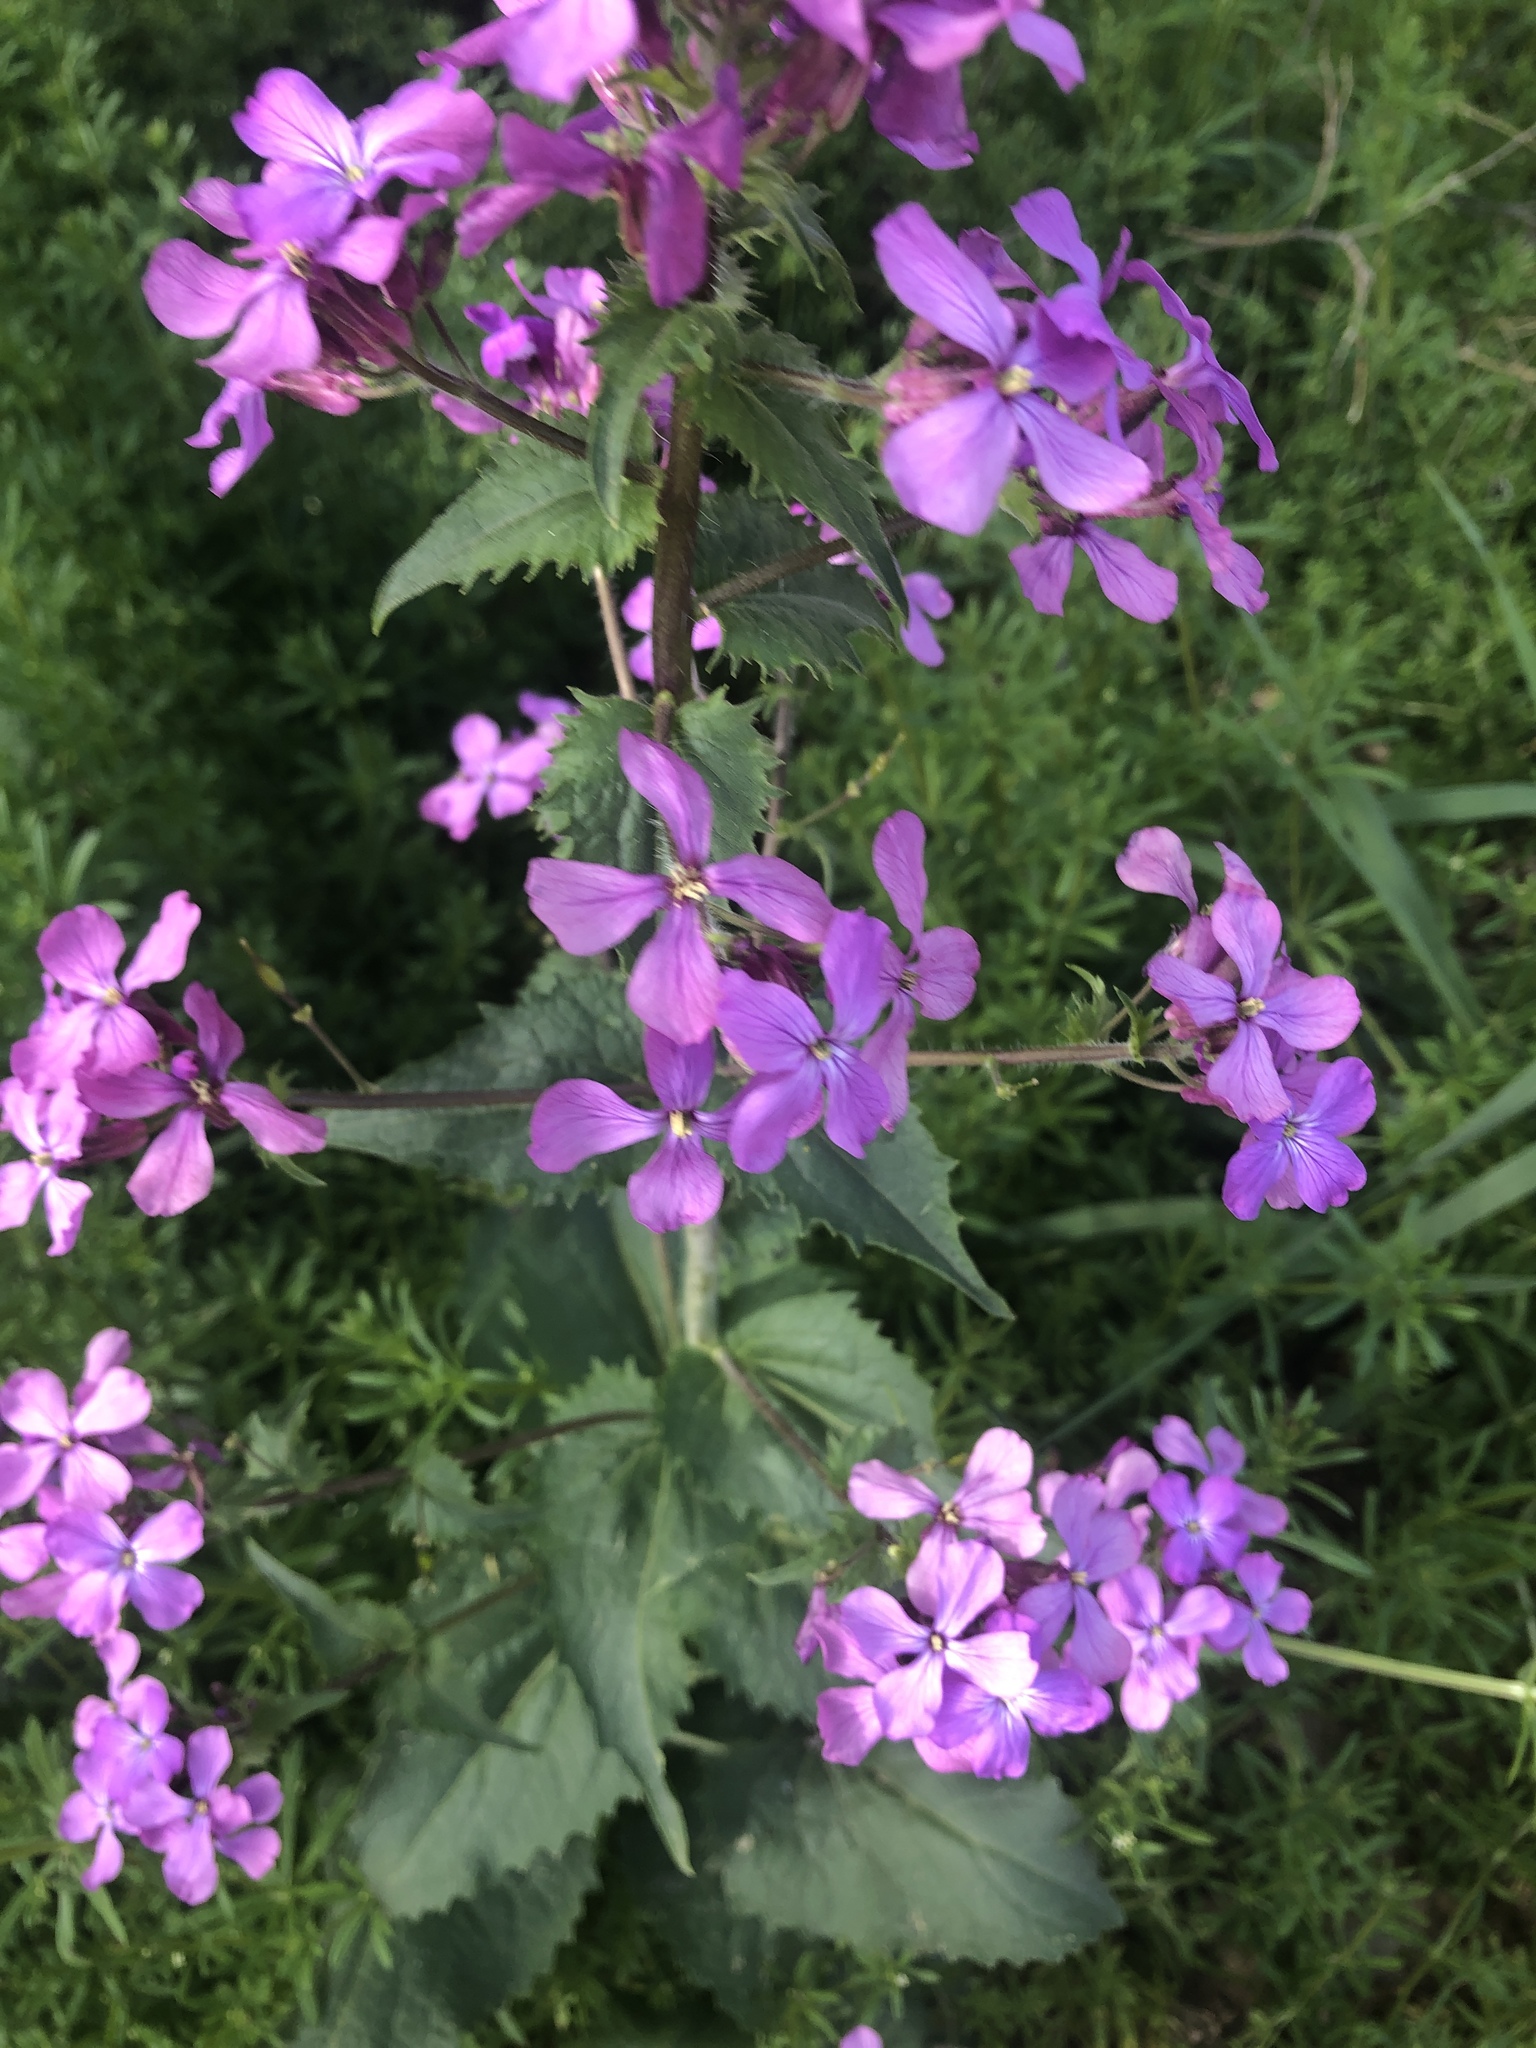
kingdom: Plantae
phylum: Tracheophyta
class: Magnoliopsida
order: Brassicales
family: Brassicaceae
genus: Lunaria
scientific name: Lunaria annua
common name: Honesty
